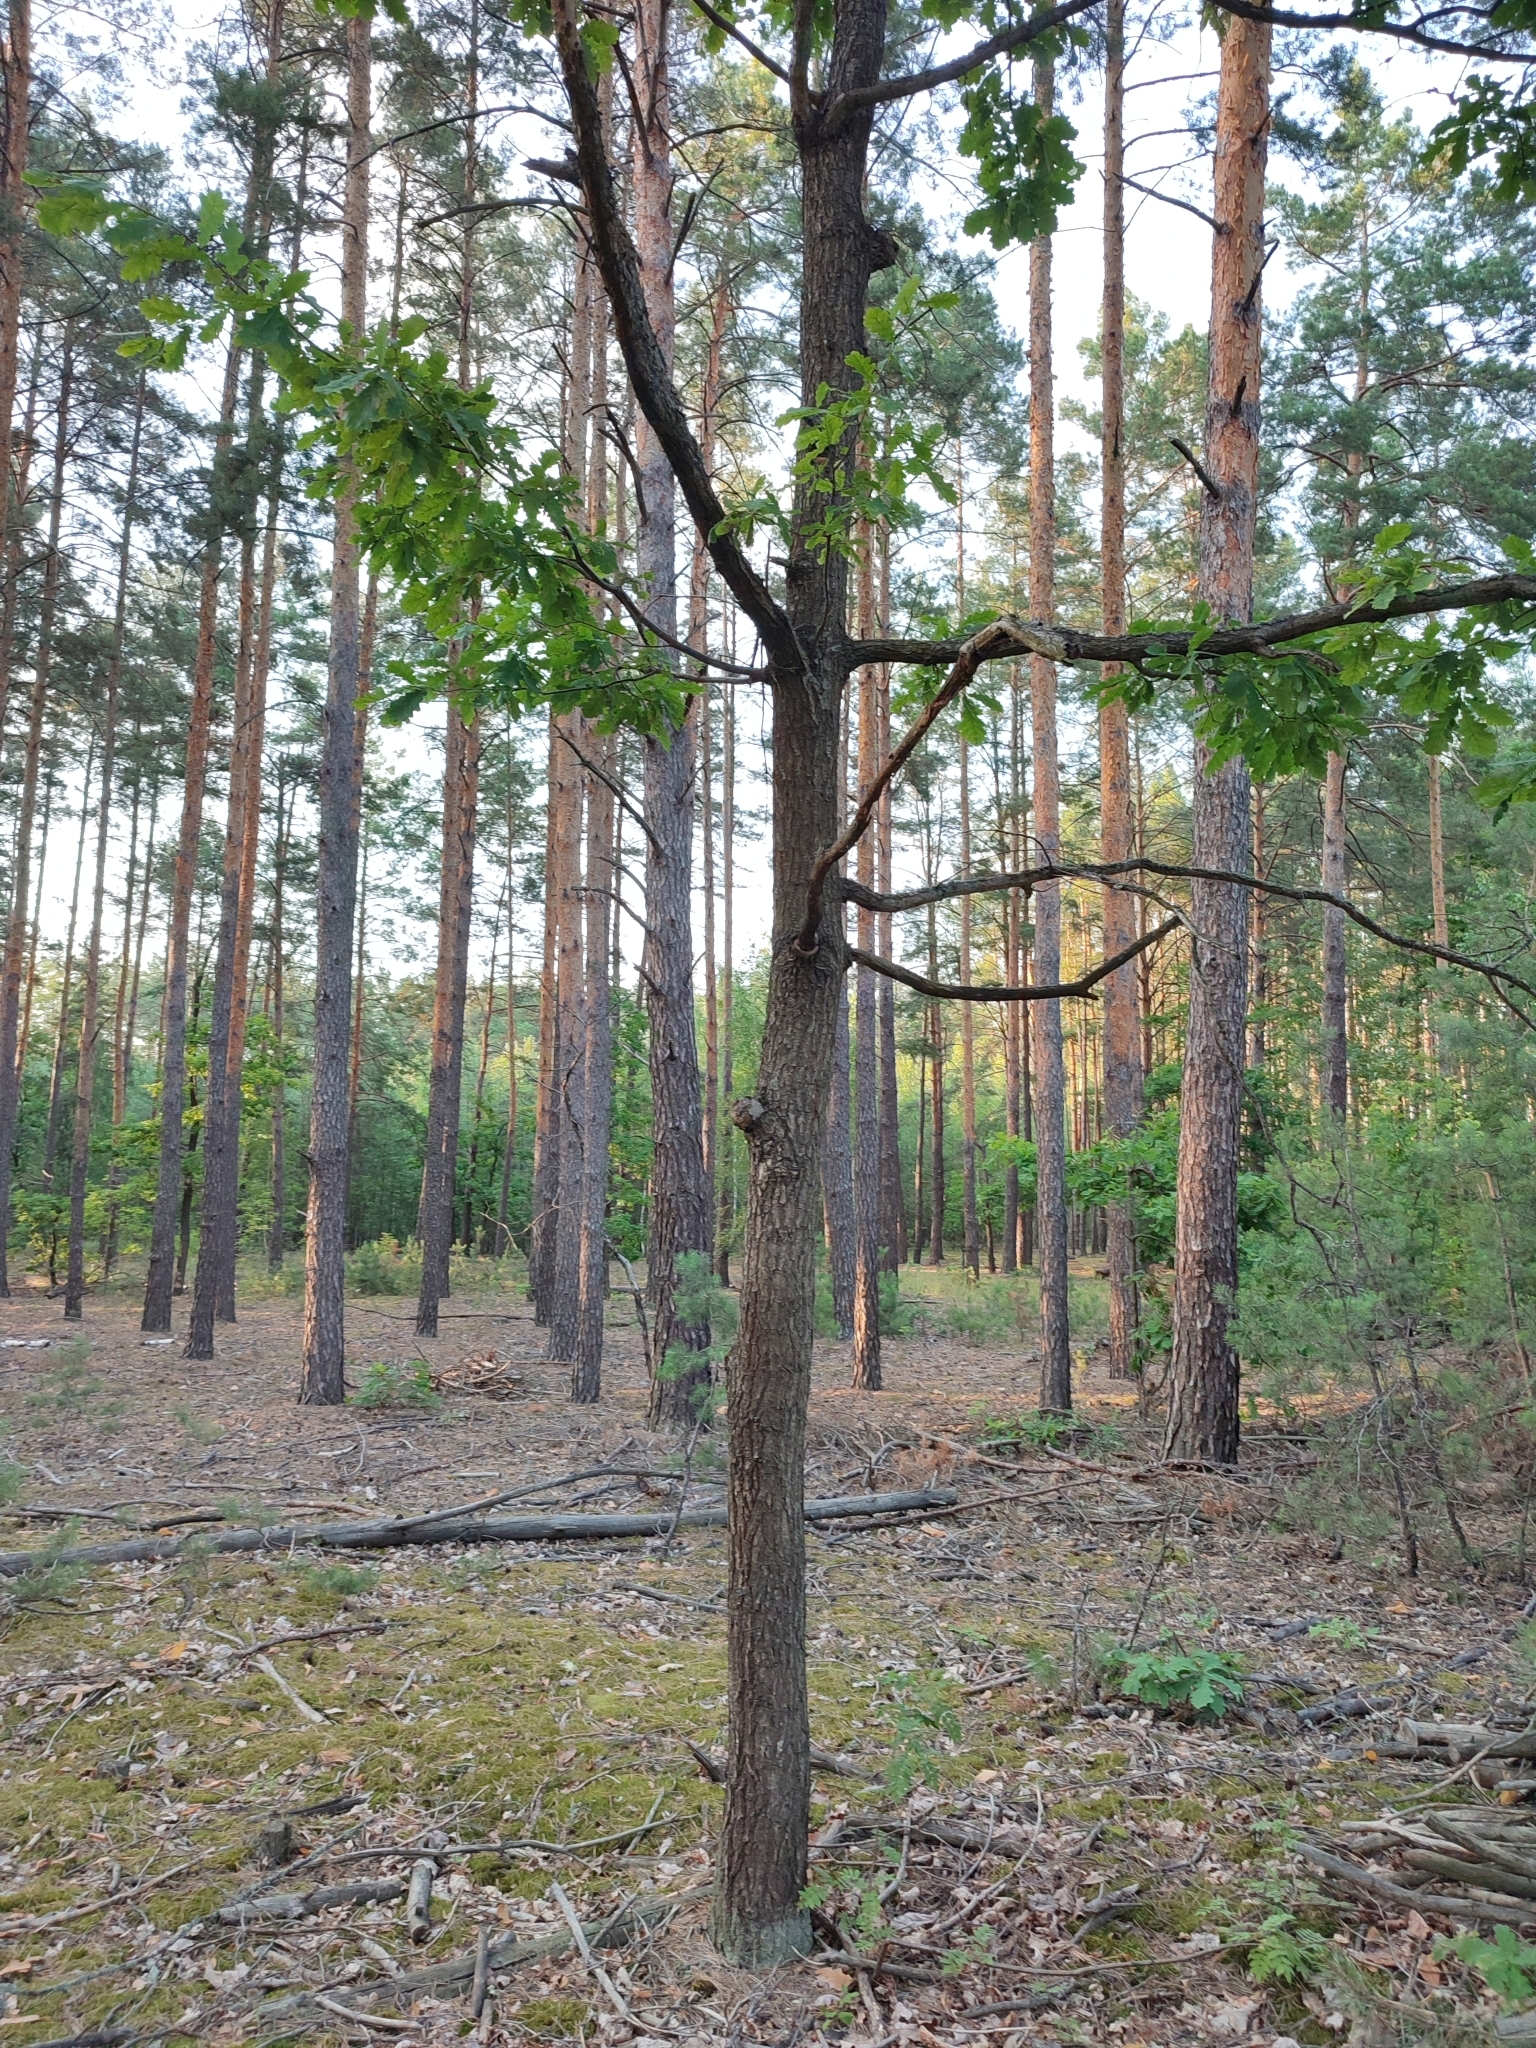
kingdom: Plantae
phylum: Tracheophyta
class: Magnoliopsida
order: Fagales
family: Fagaceae
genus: Quercus
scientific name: Quercus robur
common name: Pedunculate oak
